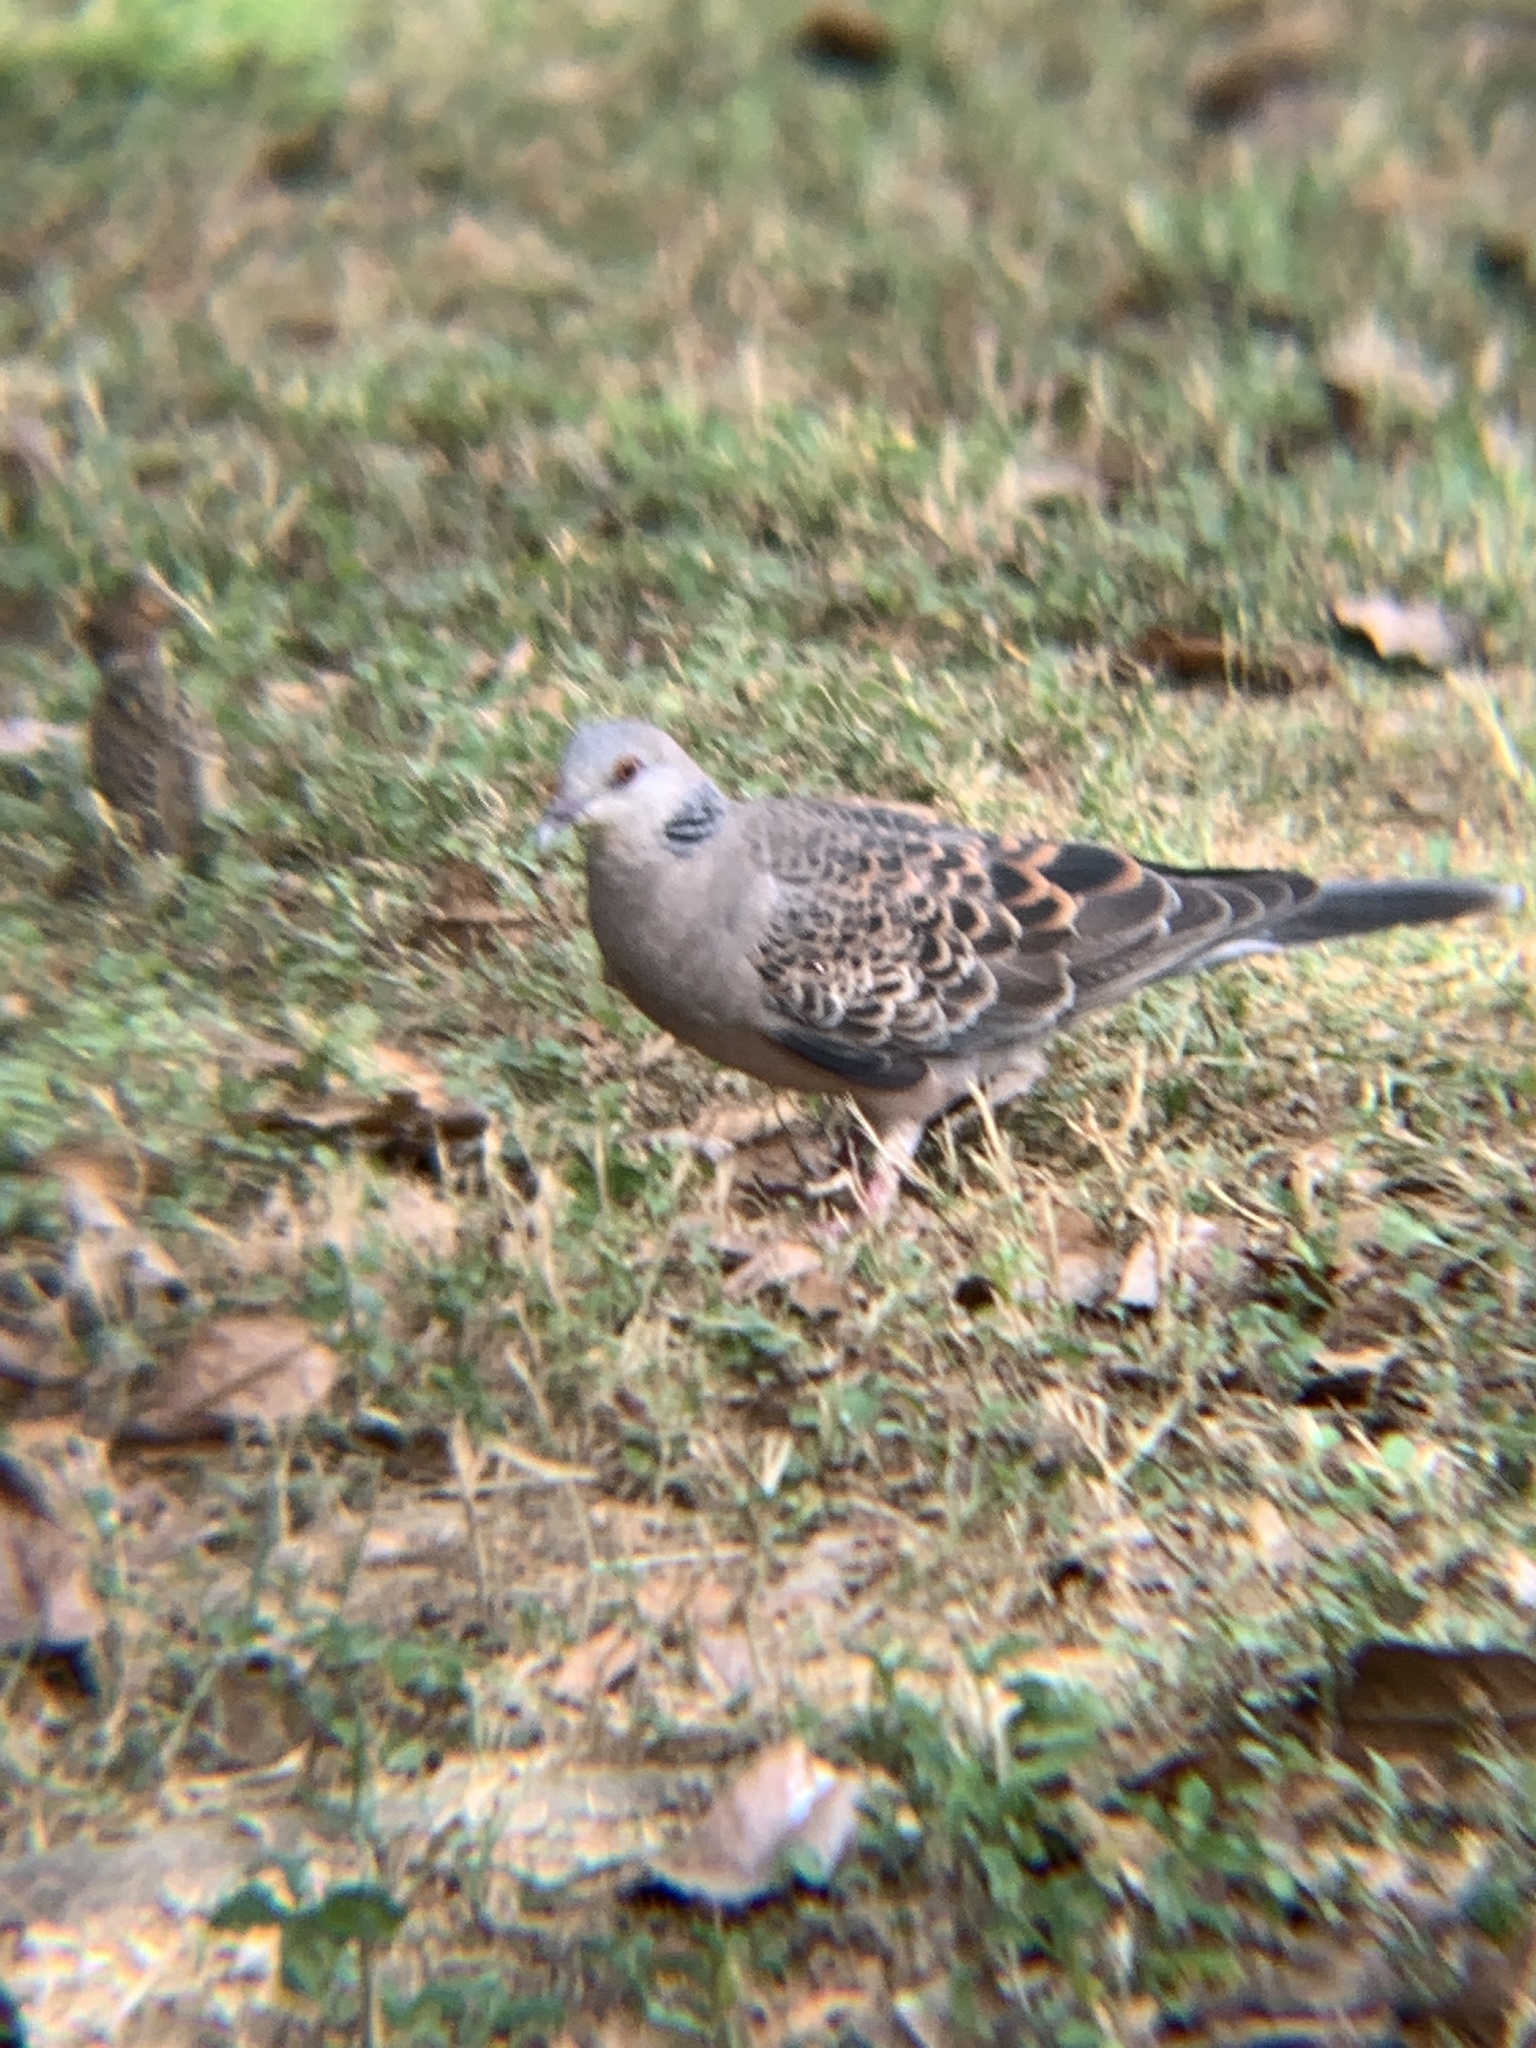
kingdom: Animalia
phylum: Chordata
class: Aves
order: Columbiformes
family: Columbidae
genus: Streptopelia
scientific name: Streptopelia orientalis
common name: Oriental turtle dove
